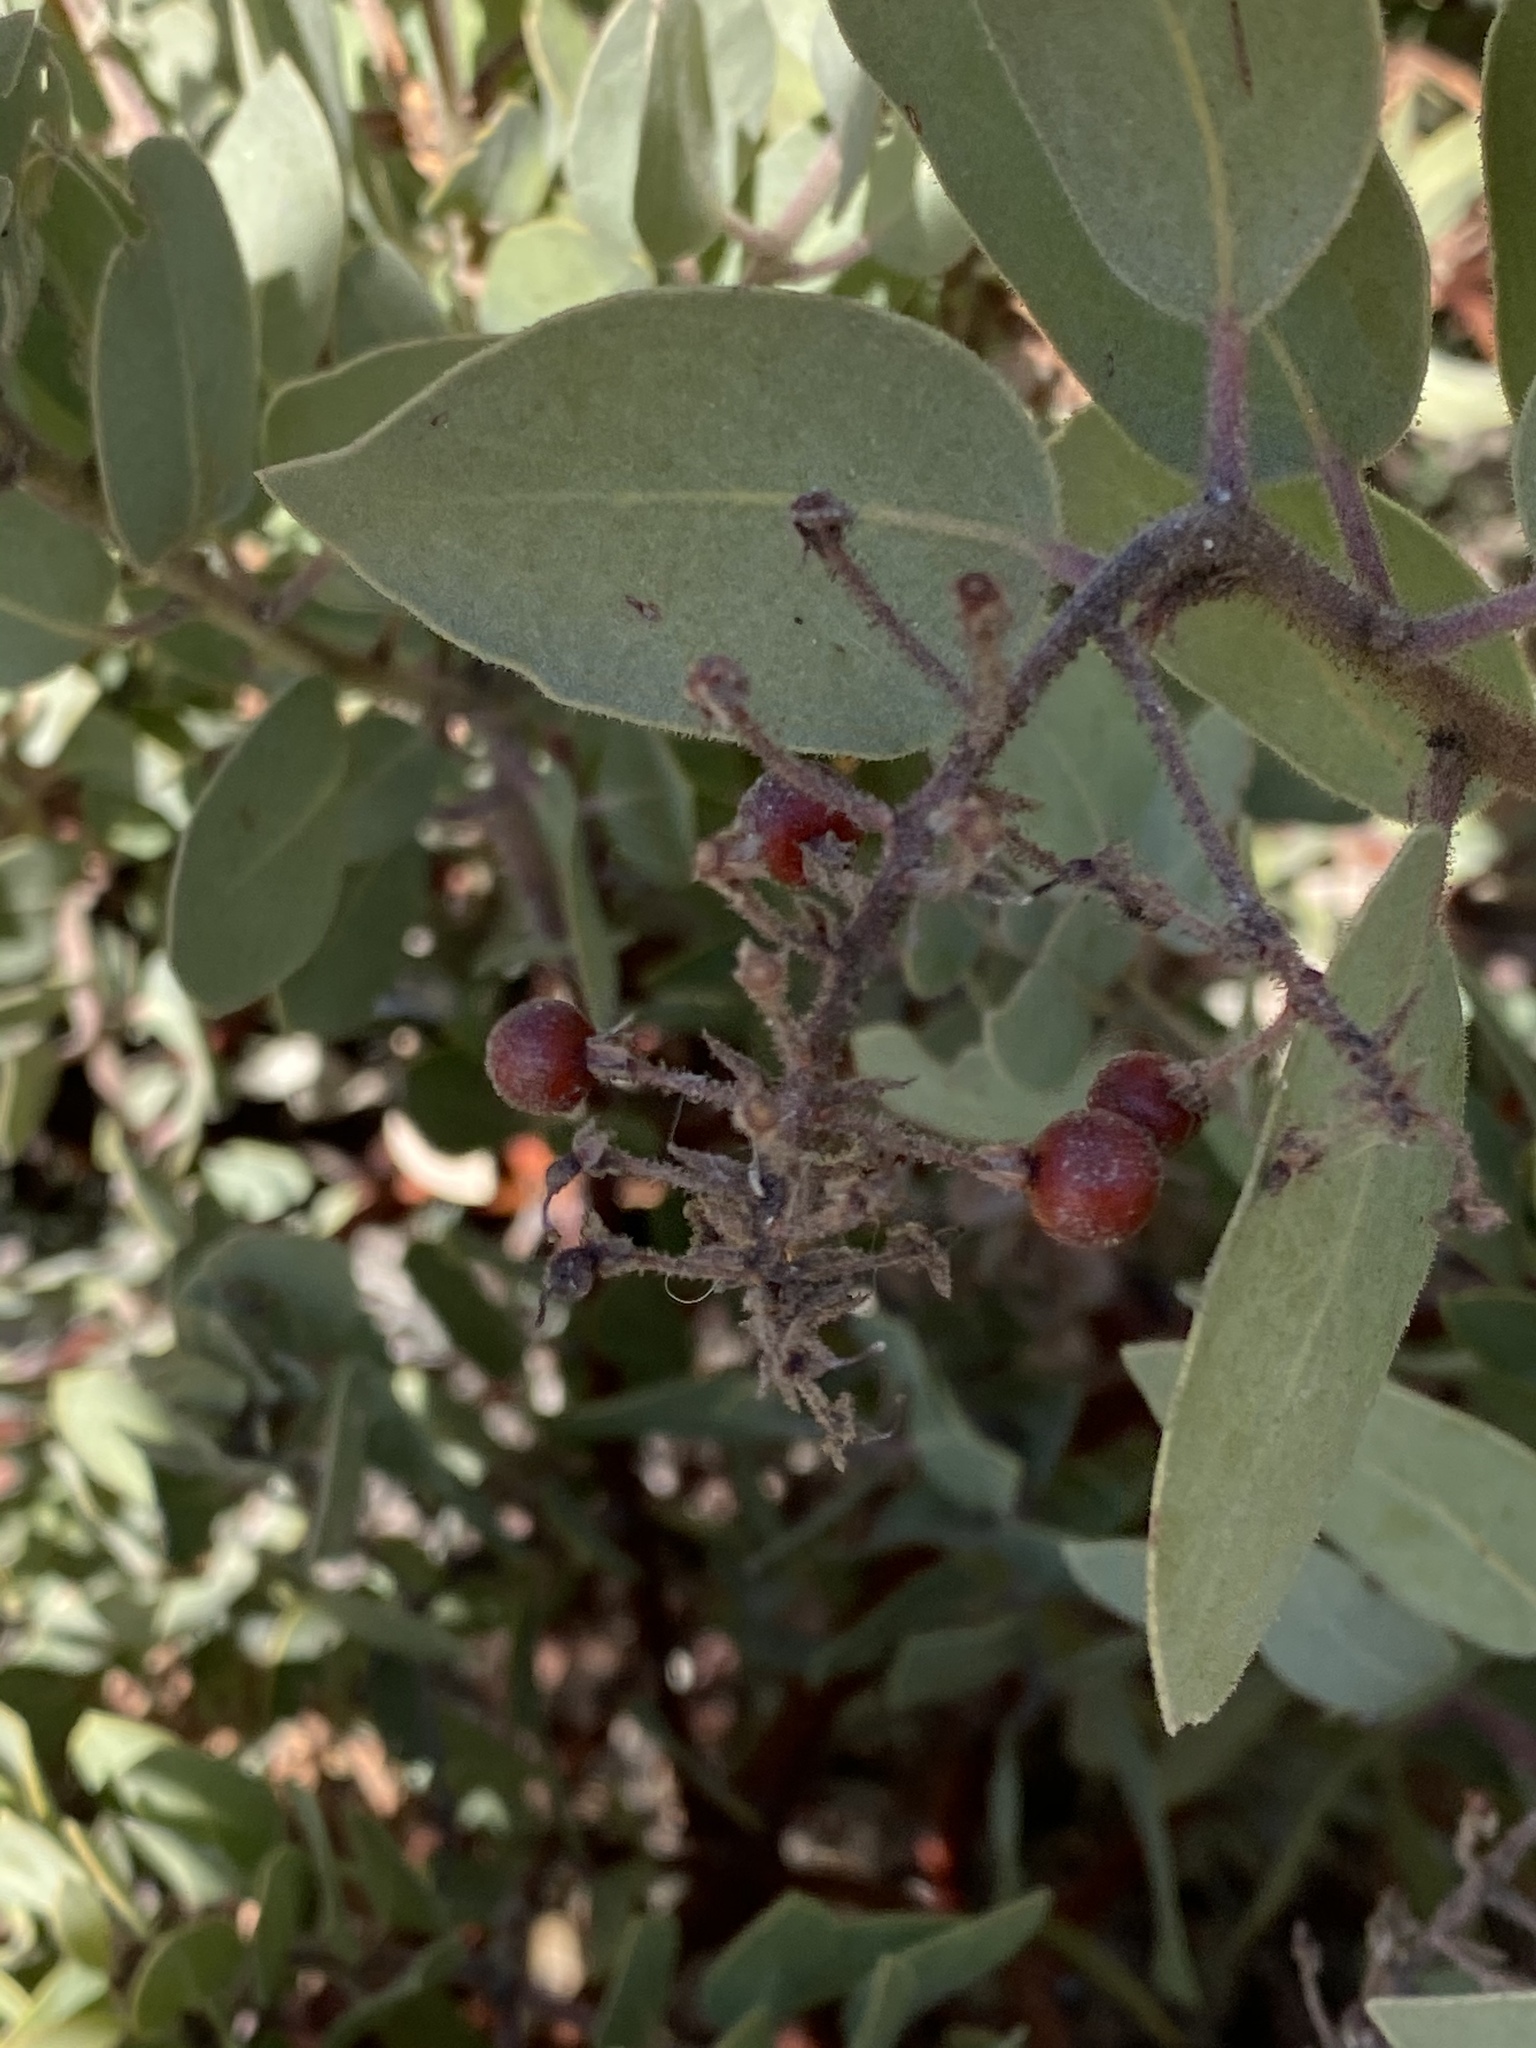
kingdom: Plantae
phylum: Tracheophyta
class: Magnoliopsida
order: Ericales
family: Ericaceae
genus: Arctostaphylos
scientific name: Arctostaphylos pringlei
